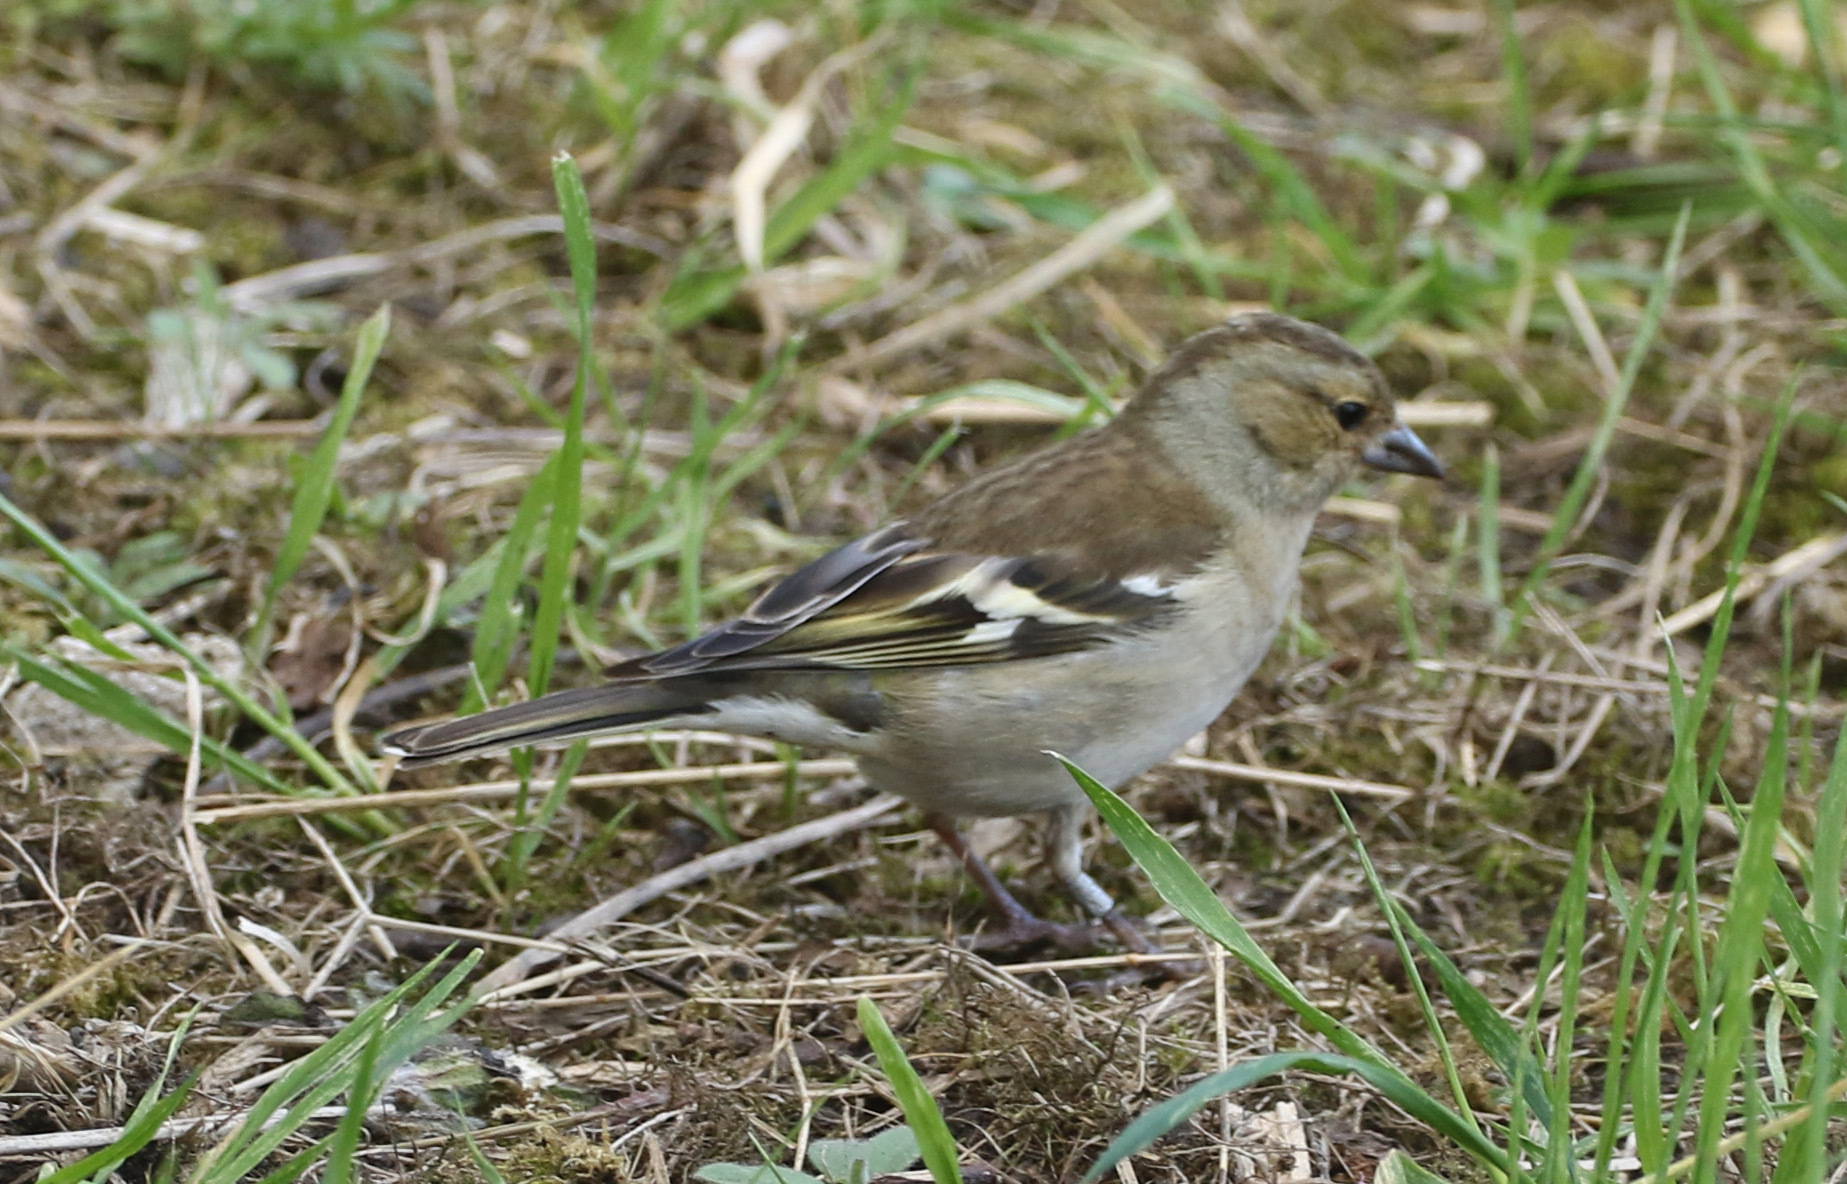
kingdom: Animalia
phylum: Chordata
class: Aves
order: Passeriformes
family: Fringillidae
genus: Fringilla
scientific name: Fringilla coelebs
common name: Common chaffinch
